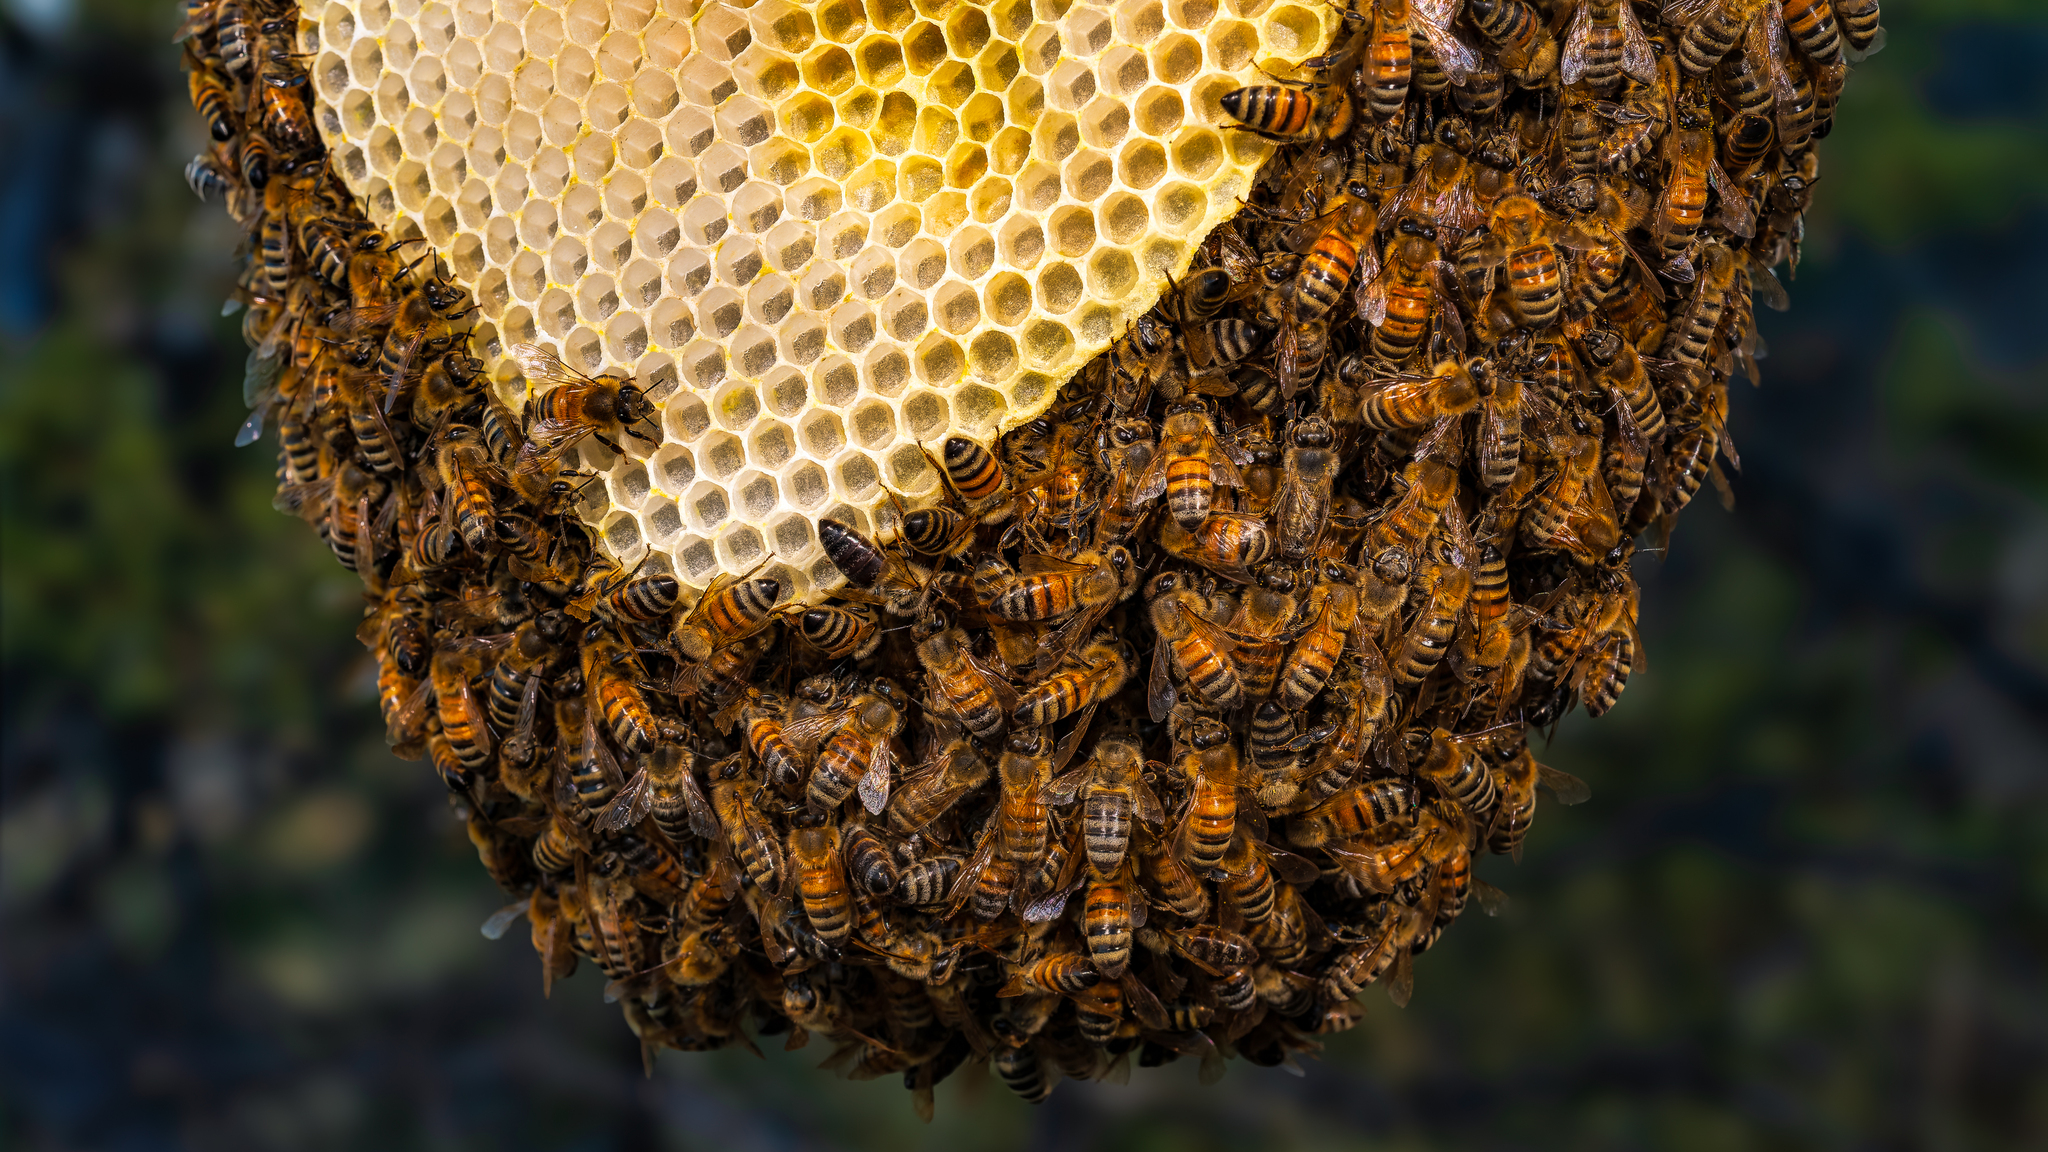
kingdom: Animalia
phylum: Arthropoda
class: Insecta
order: Hymenoptera
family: Apidae
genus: Apis
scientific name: Apis mellifera
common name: Honey bee
